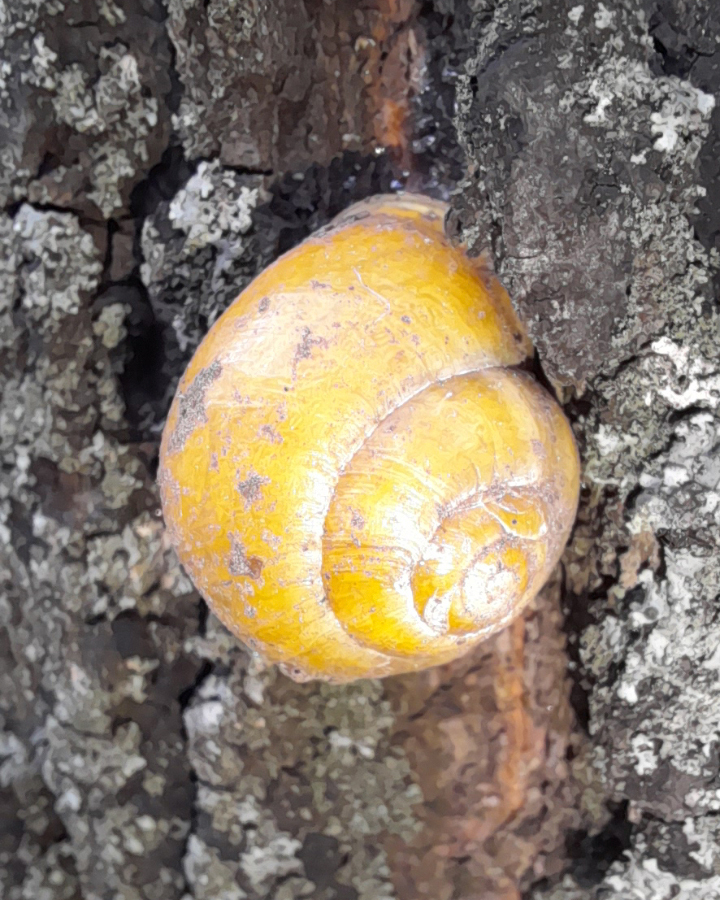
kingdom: Animalia
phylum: Mollusca
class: Gastropoda
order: Stylommatophora
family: Helicidae
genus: Cepaea
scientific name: Cepaea hortensis
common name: White-lip gardensnail
